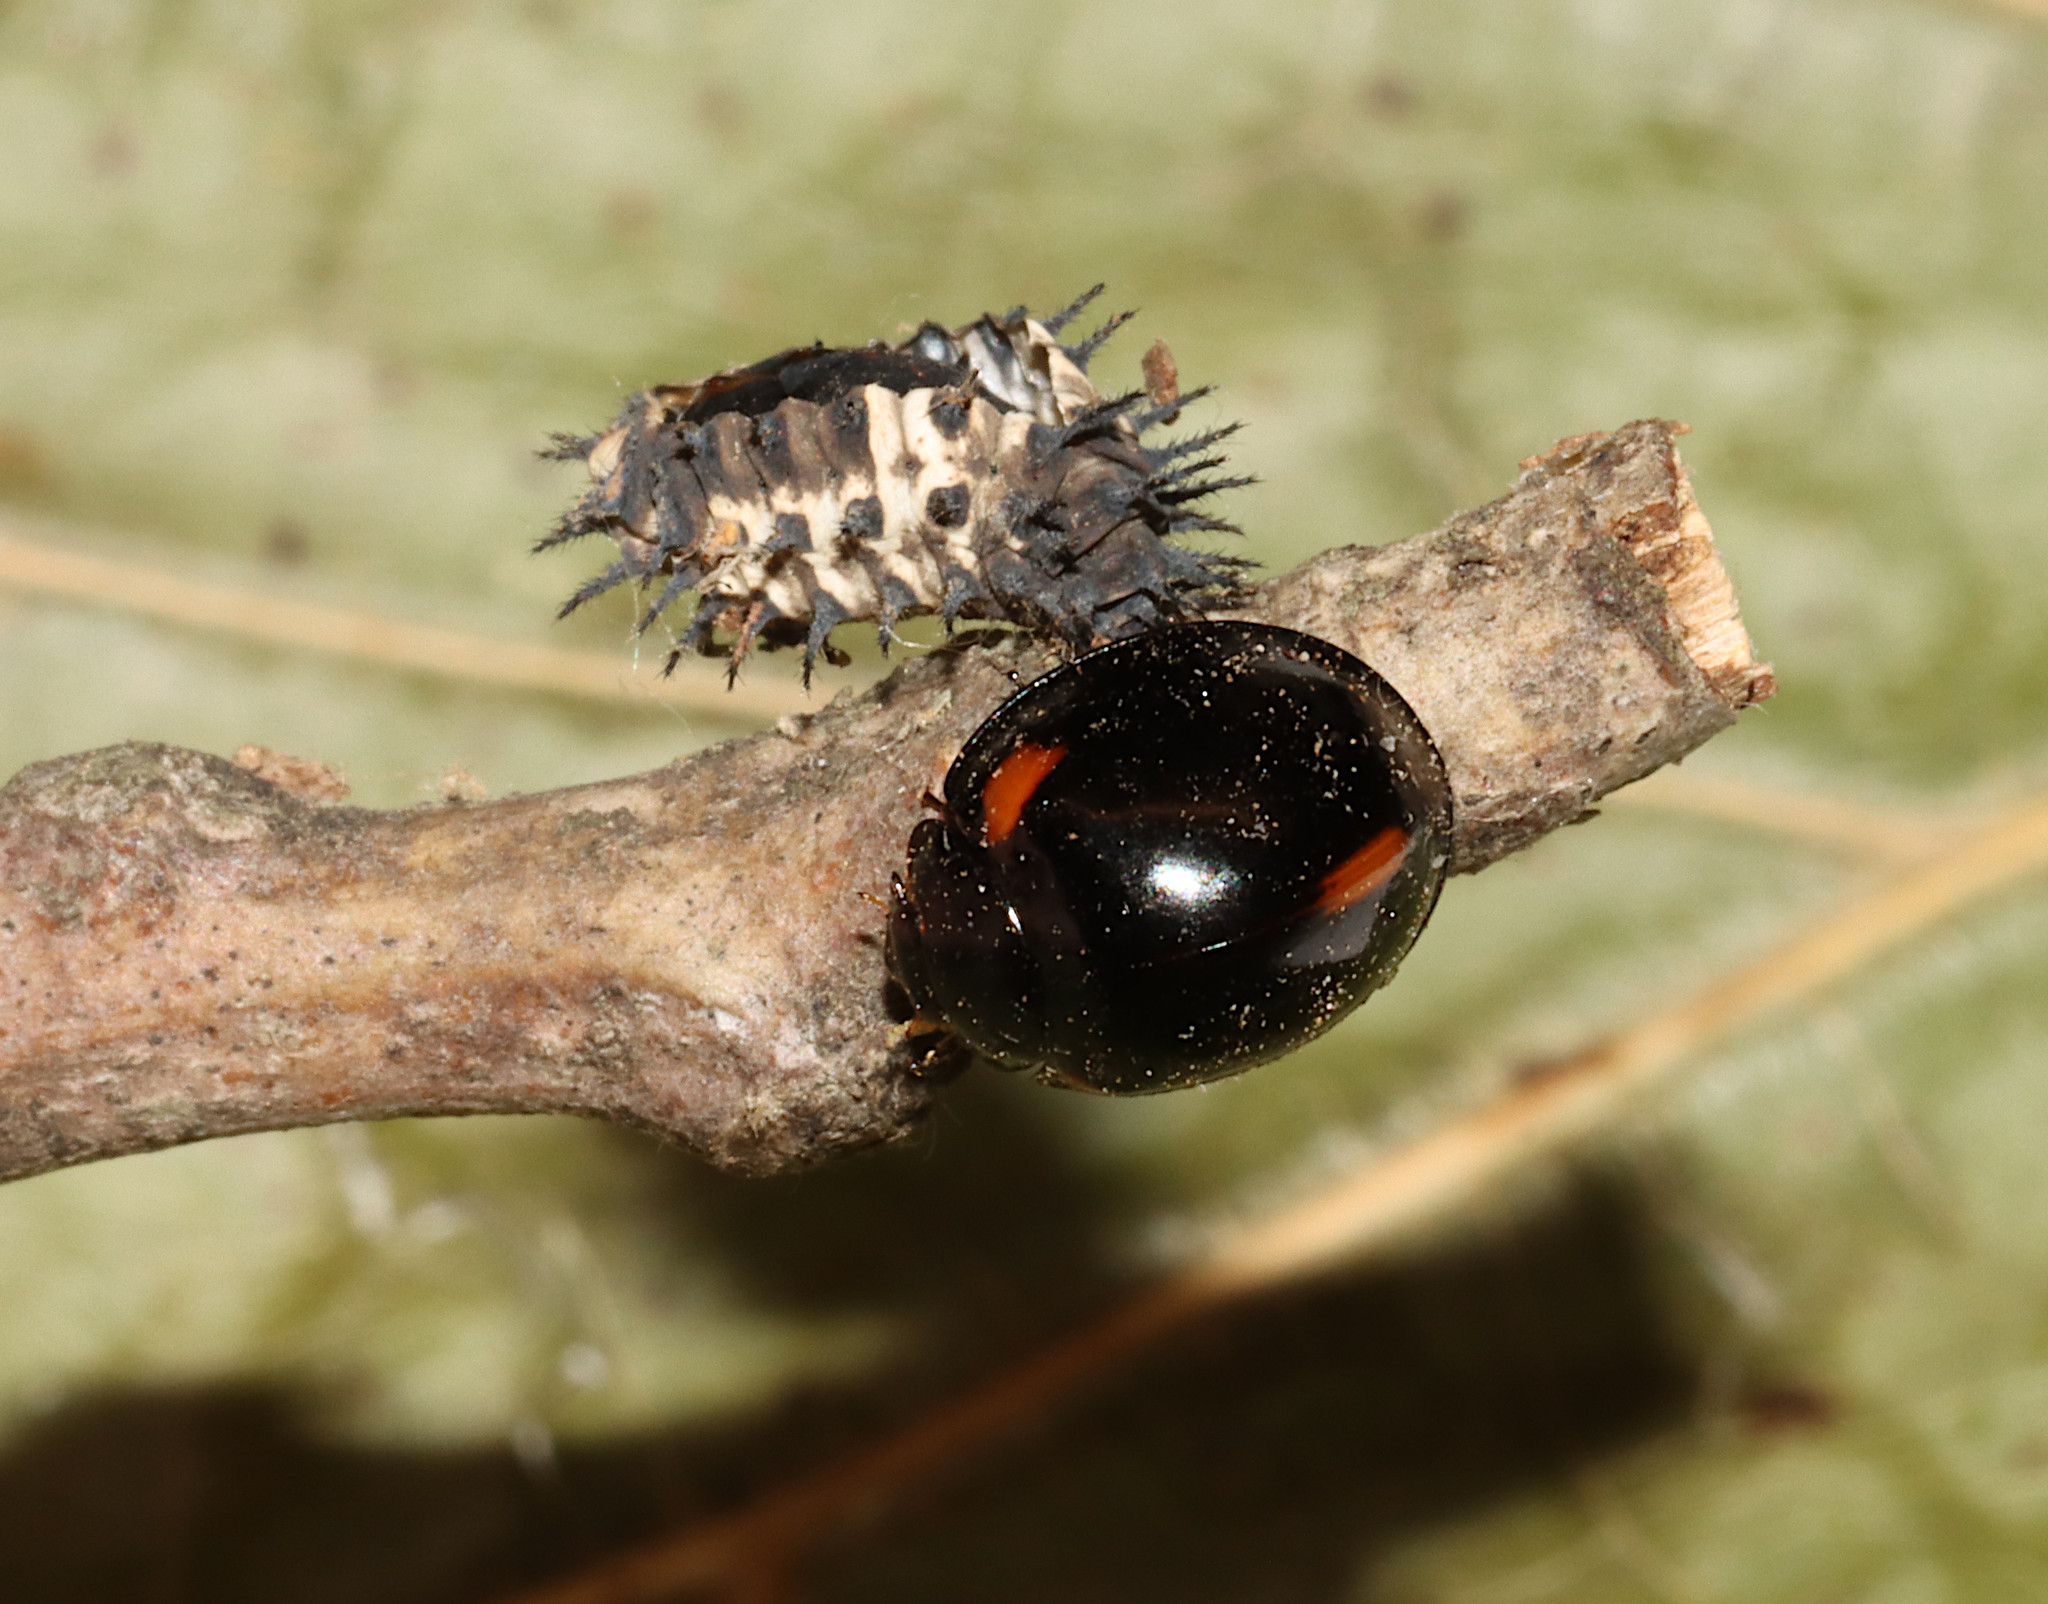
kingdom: Animalia
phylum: Arthropoda
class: Insecta
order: Coleoptera
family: Coccinellidae
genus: Axion
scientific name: Axion tripustulatum
